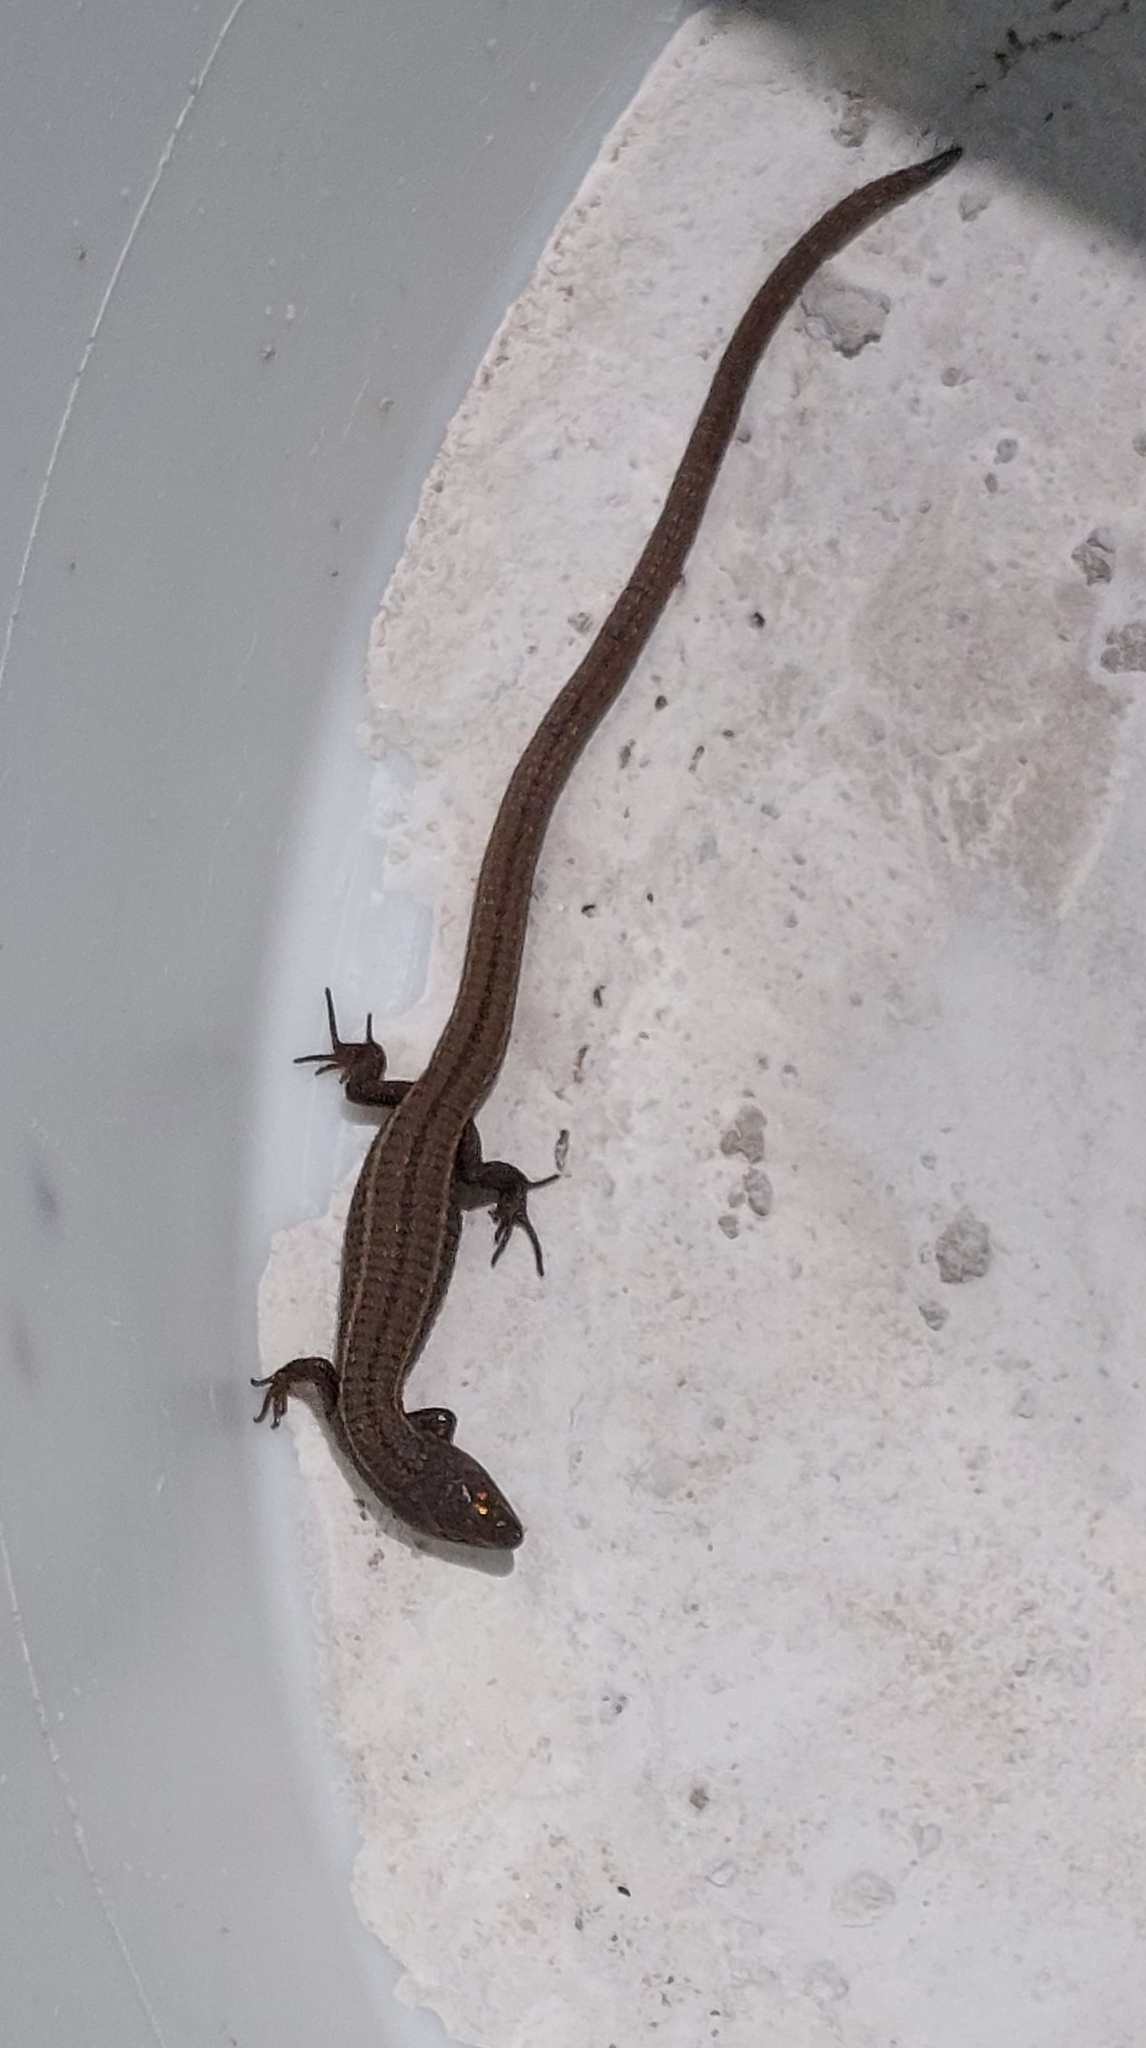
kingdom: Animalia
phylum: Chordata
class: Squamata
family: Gymnophthalmidae
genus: Cercosaura
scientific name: Cercosaura schreibersii
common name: Schreibers' many-fingered teiid
